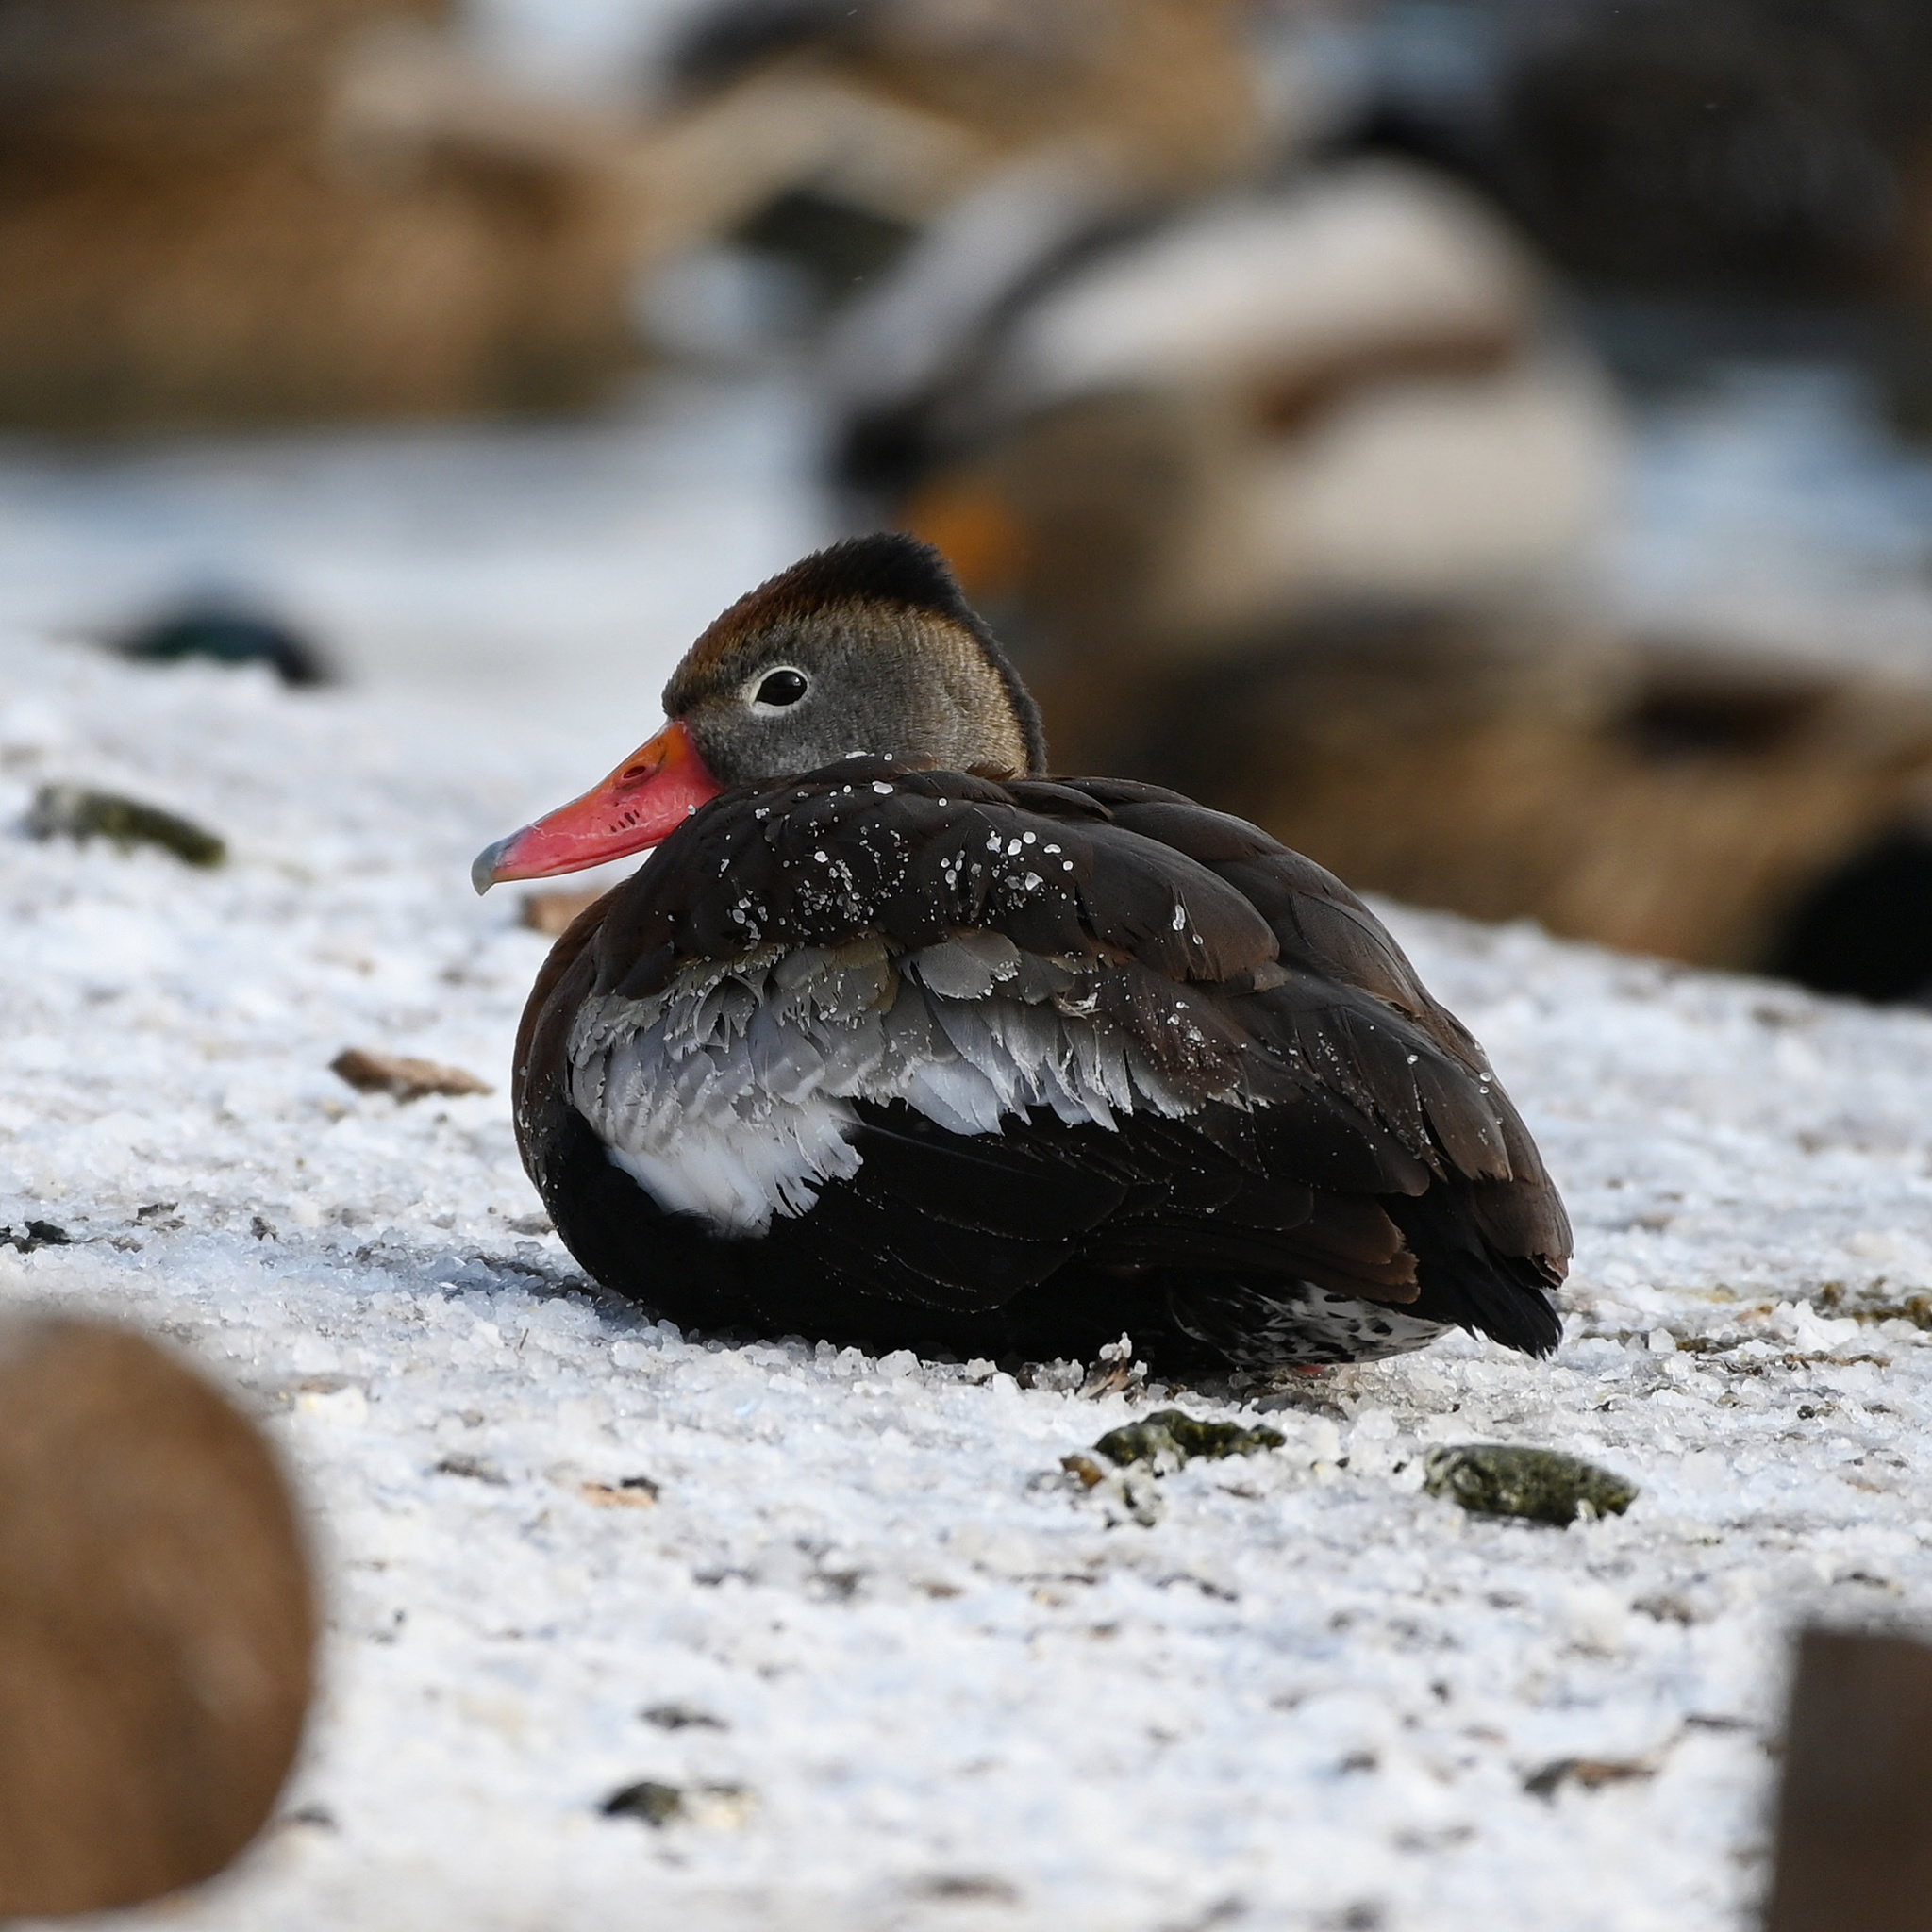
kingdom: Animalia
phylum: Chordata
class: Aves
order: Anseriformes
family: Anatidae
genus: Dendrocygna
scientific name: Dendrocygna autumnalis
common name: Black-bellied whistling duck
